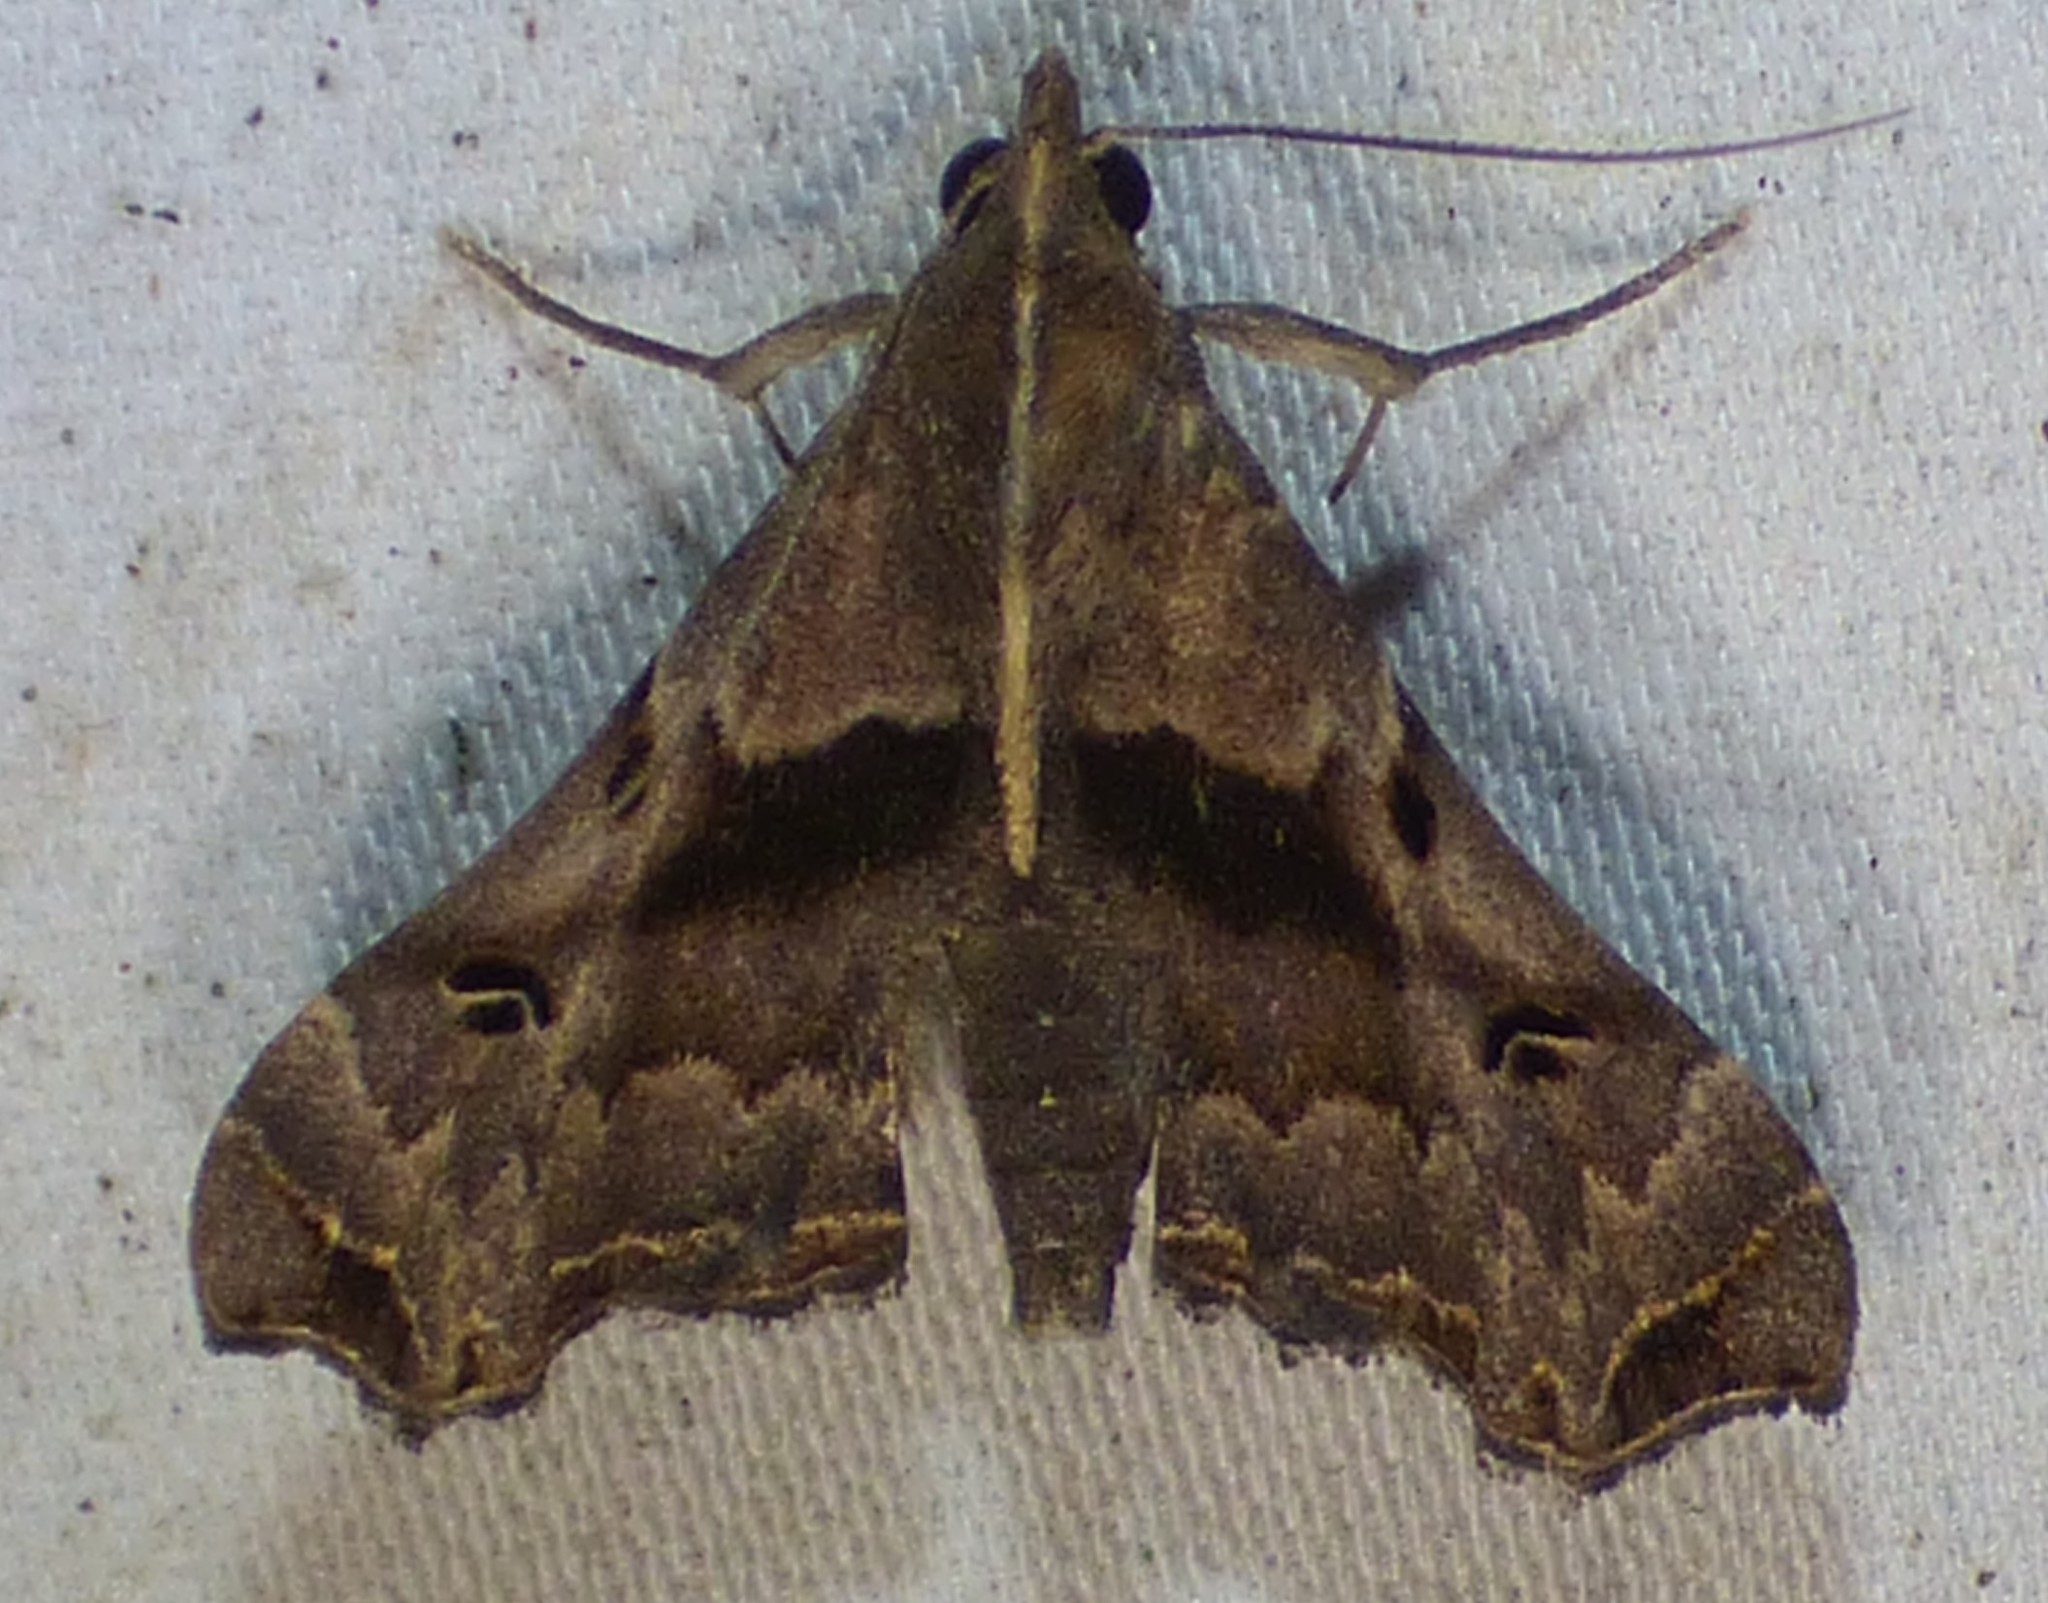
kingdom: Animalia
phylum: Arthropoda
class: Insecta
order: Lepidoptera
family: Erebidae
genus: Palthis
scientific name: Palthis asopialis
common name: Faint-spotted palthis moth
